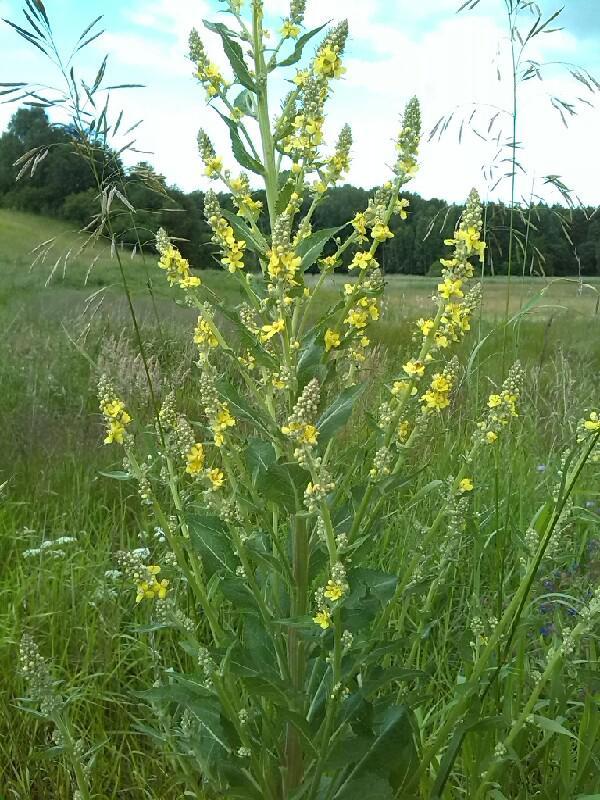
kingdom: Plantae
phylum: Tracheophyta
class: Magnoliopsida
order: Lamiales
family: Scrophulariaceae
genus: Verbascum
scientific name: Verbascum lychnitis
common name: White mullein
